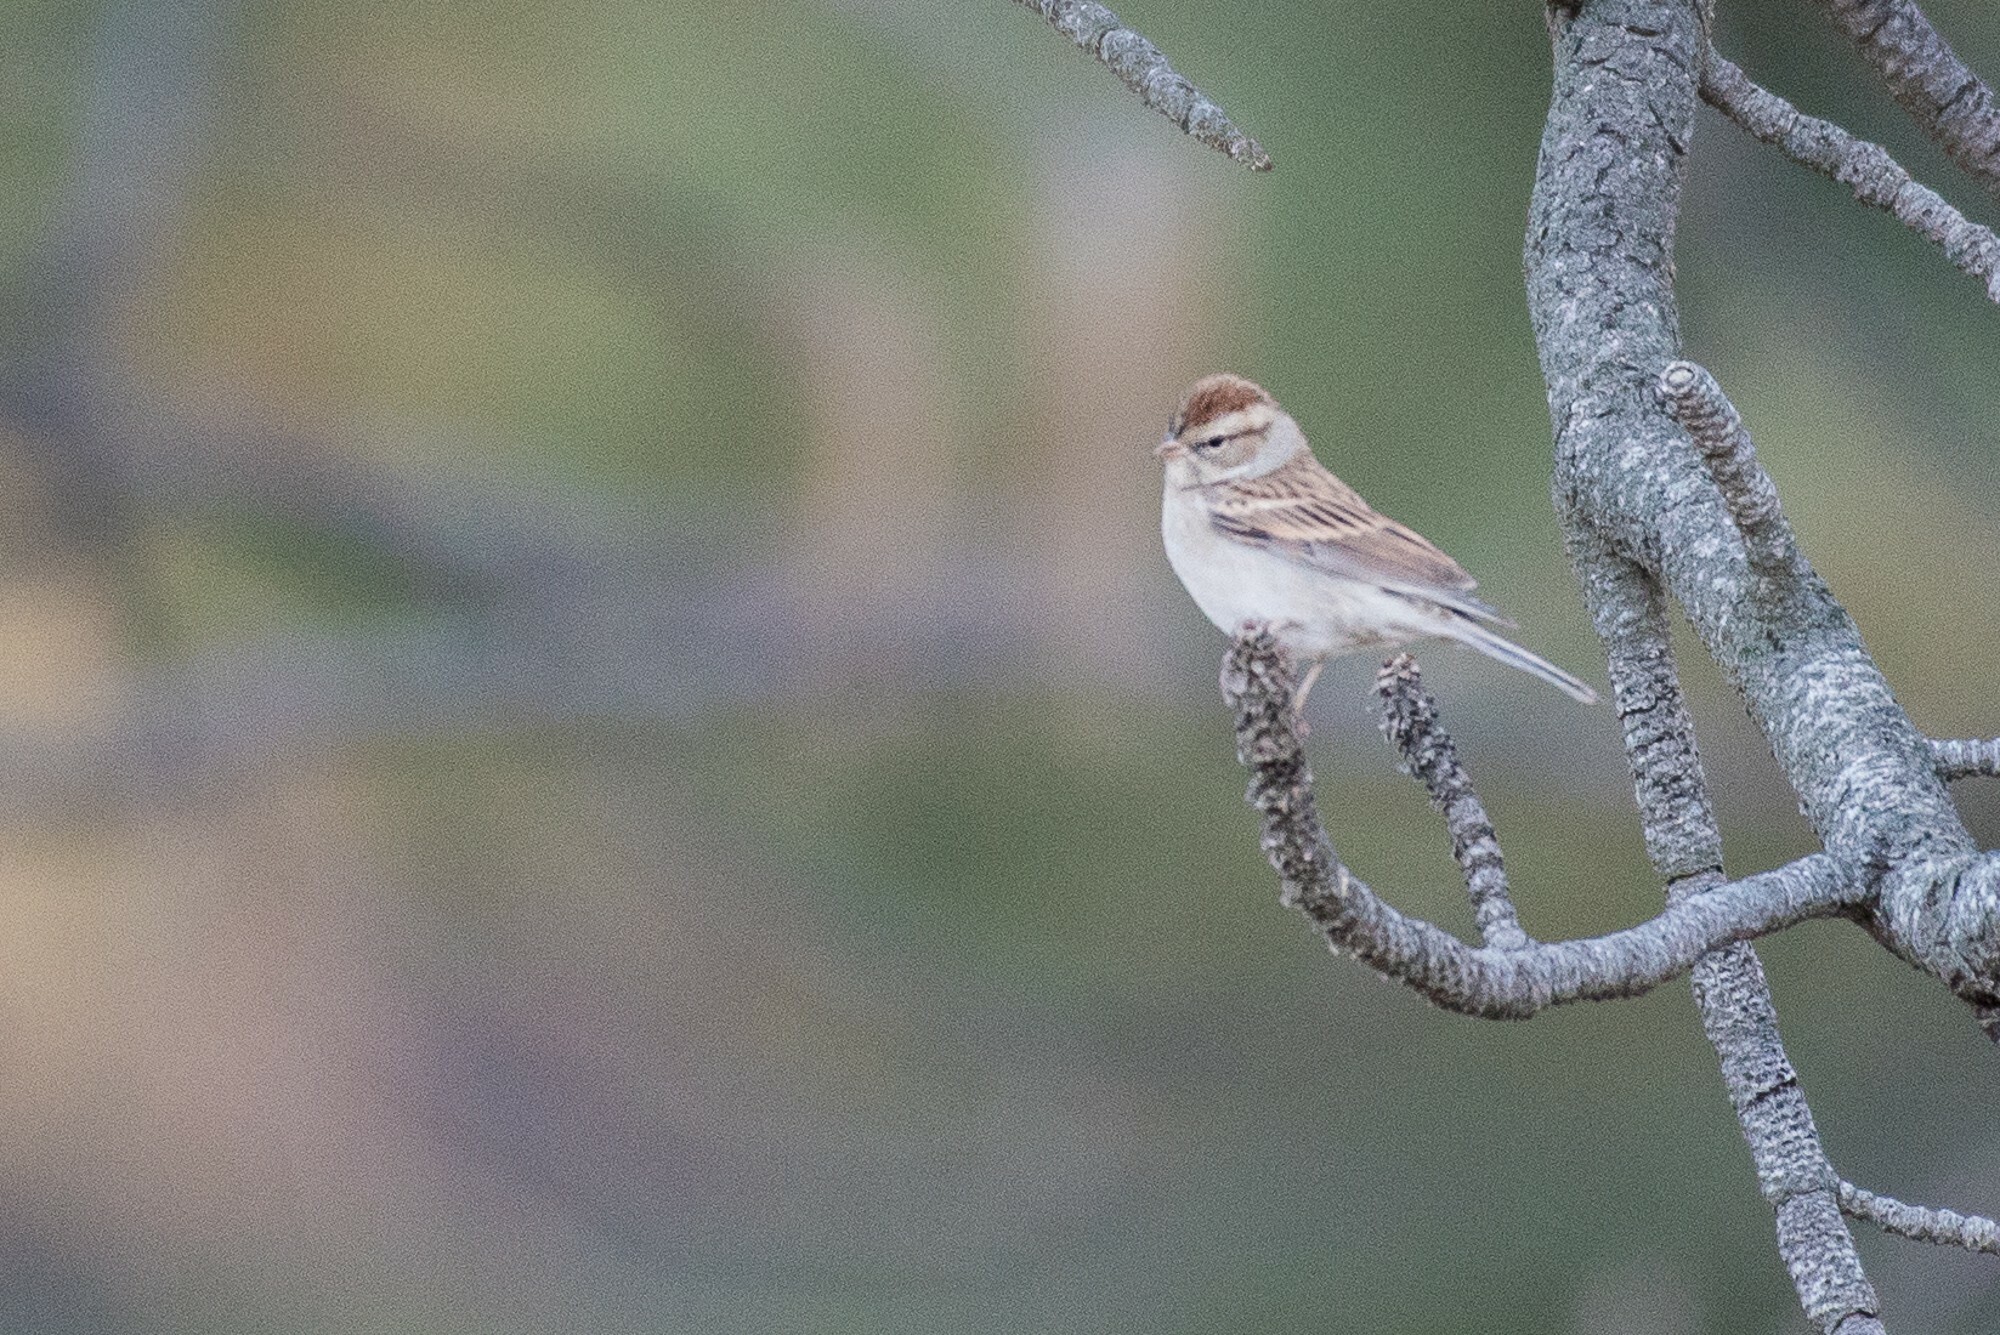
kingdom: Animalia
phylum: Chordata
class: Aves
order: Passeriformes
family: Passerellidae
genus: Spizella
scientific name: Spizella passerina
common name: Chipping sparrow
